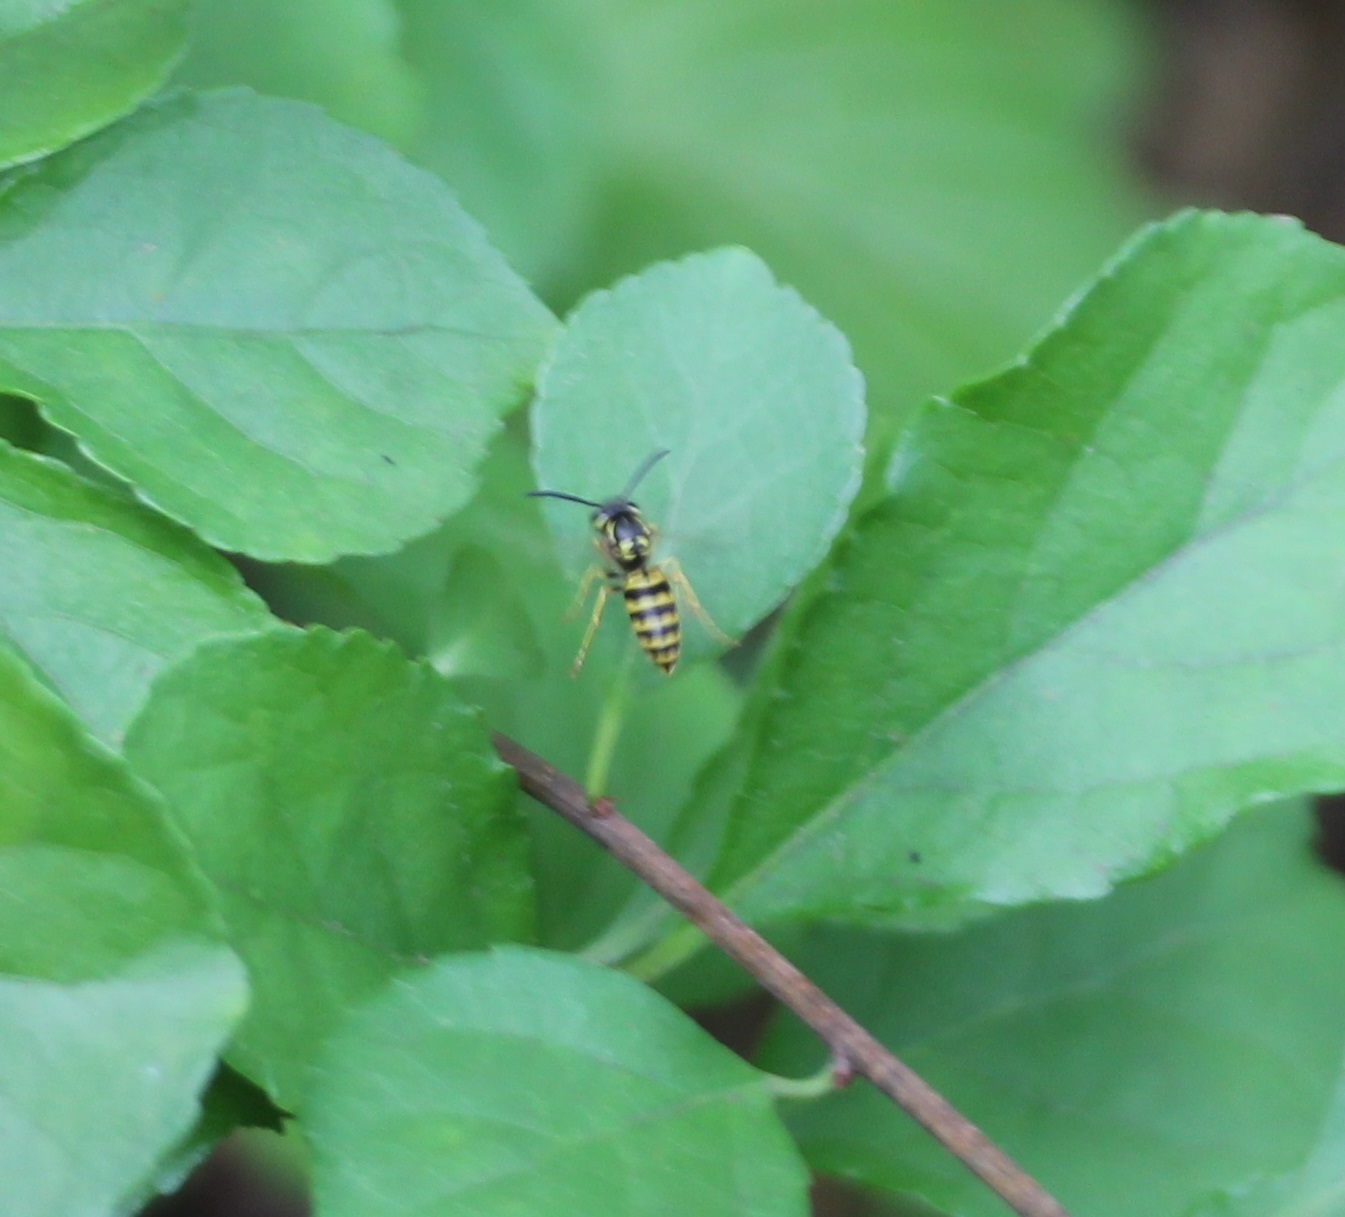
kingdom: Animalia
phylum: Arthropoda
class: Insecta
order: Hymenoptera
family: Vespidae
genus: Vespula
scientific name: Vespula maculifrons
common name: Eastern yellowjacket
